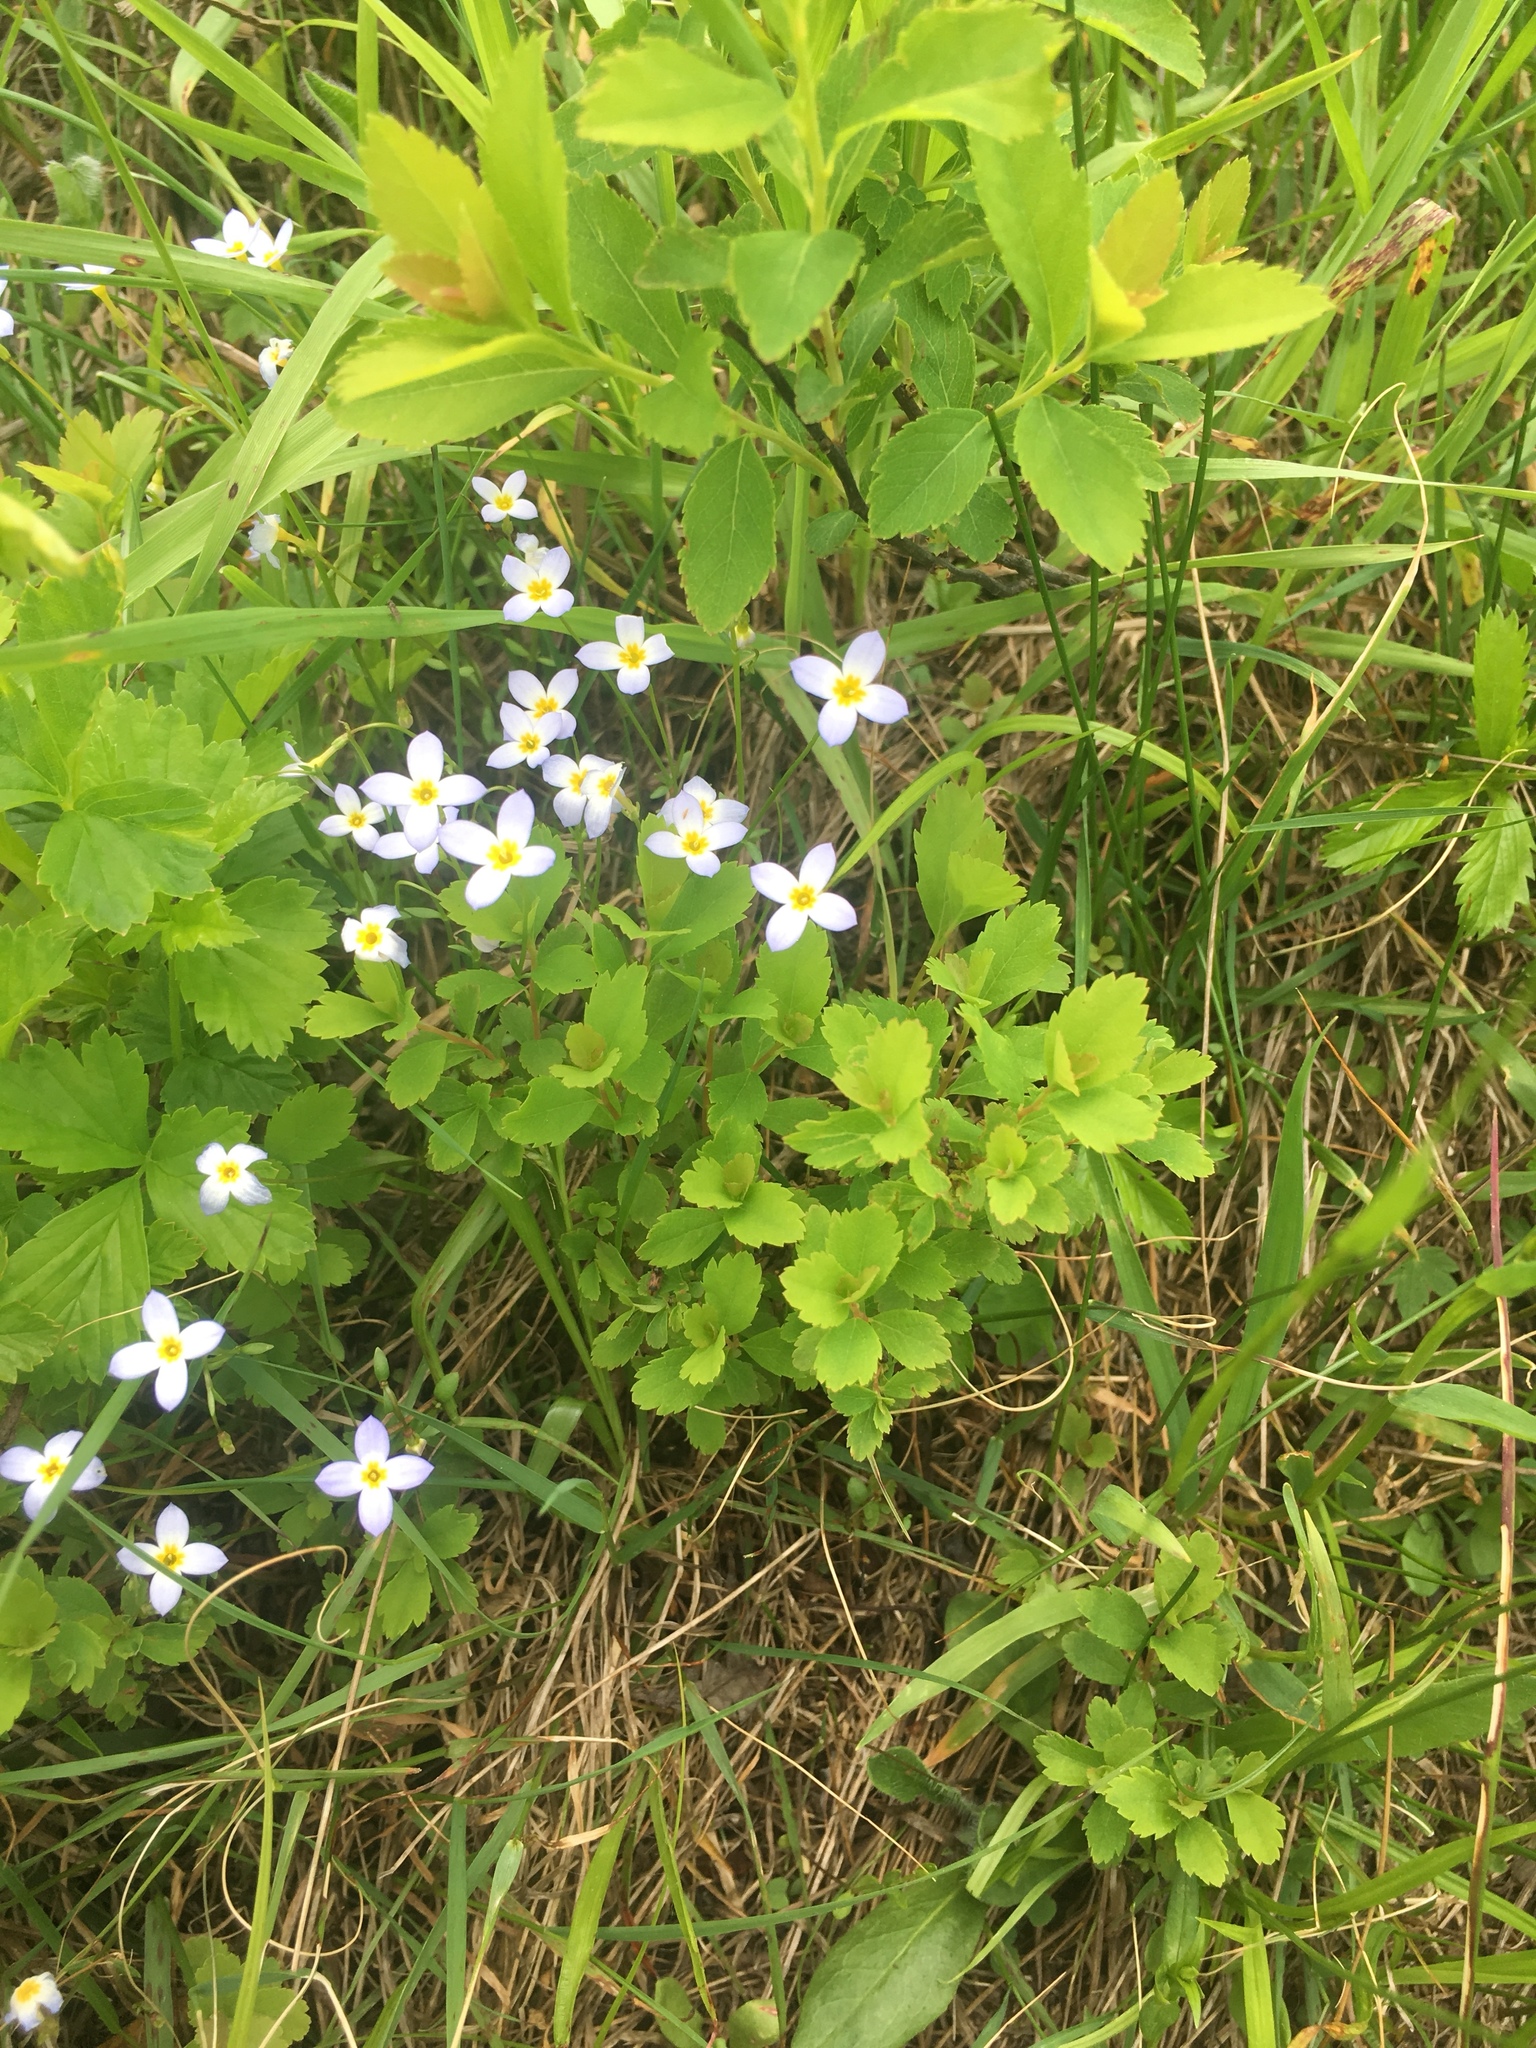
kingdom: Plantae
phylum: Tracheophyta
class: Magnoliopsida
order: Gentianales
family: Rubiaceae
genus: Houstonia
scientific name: Houstonia caerulea
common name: Bluets
